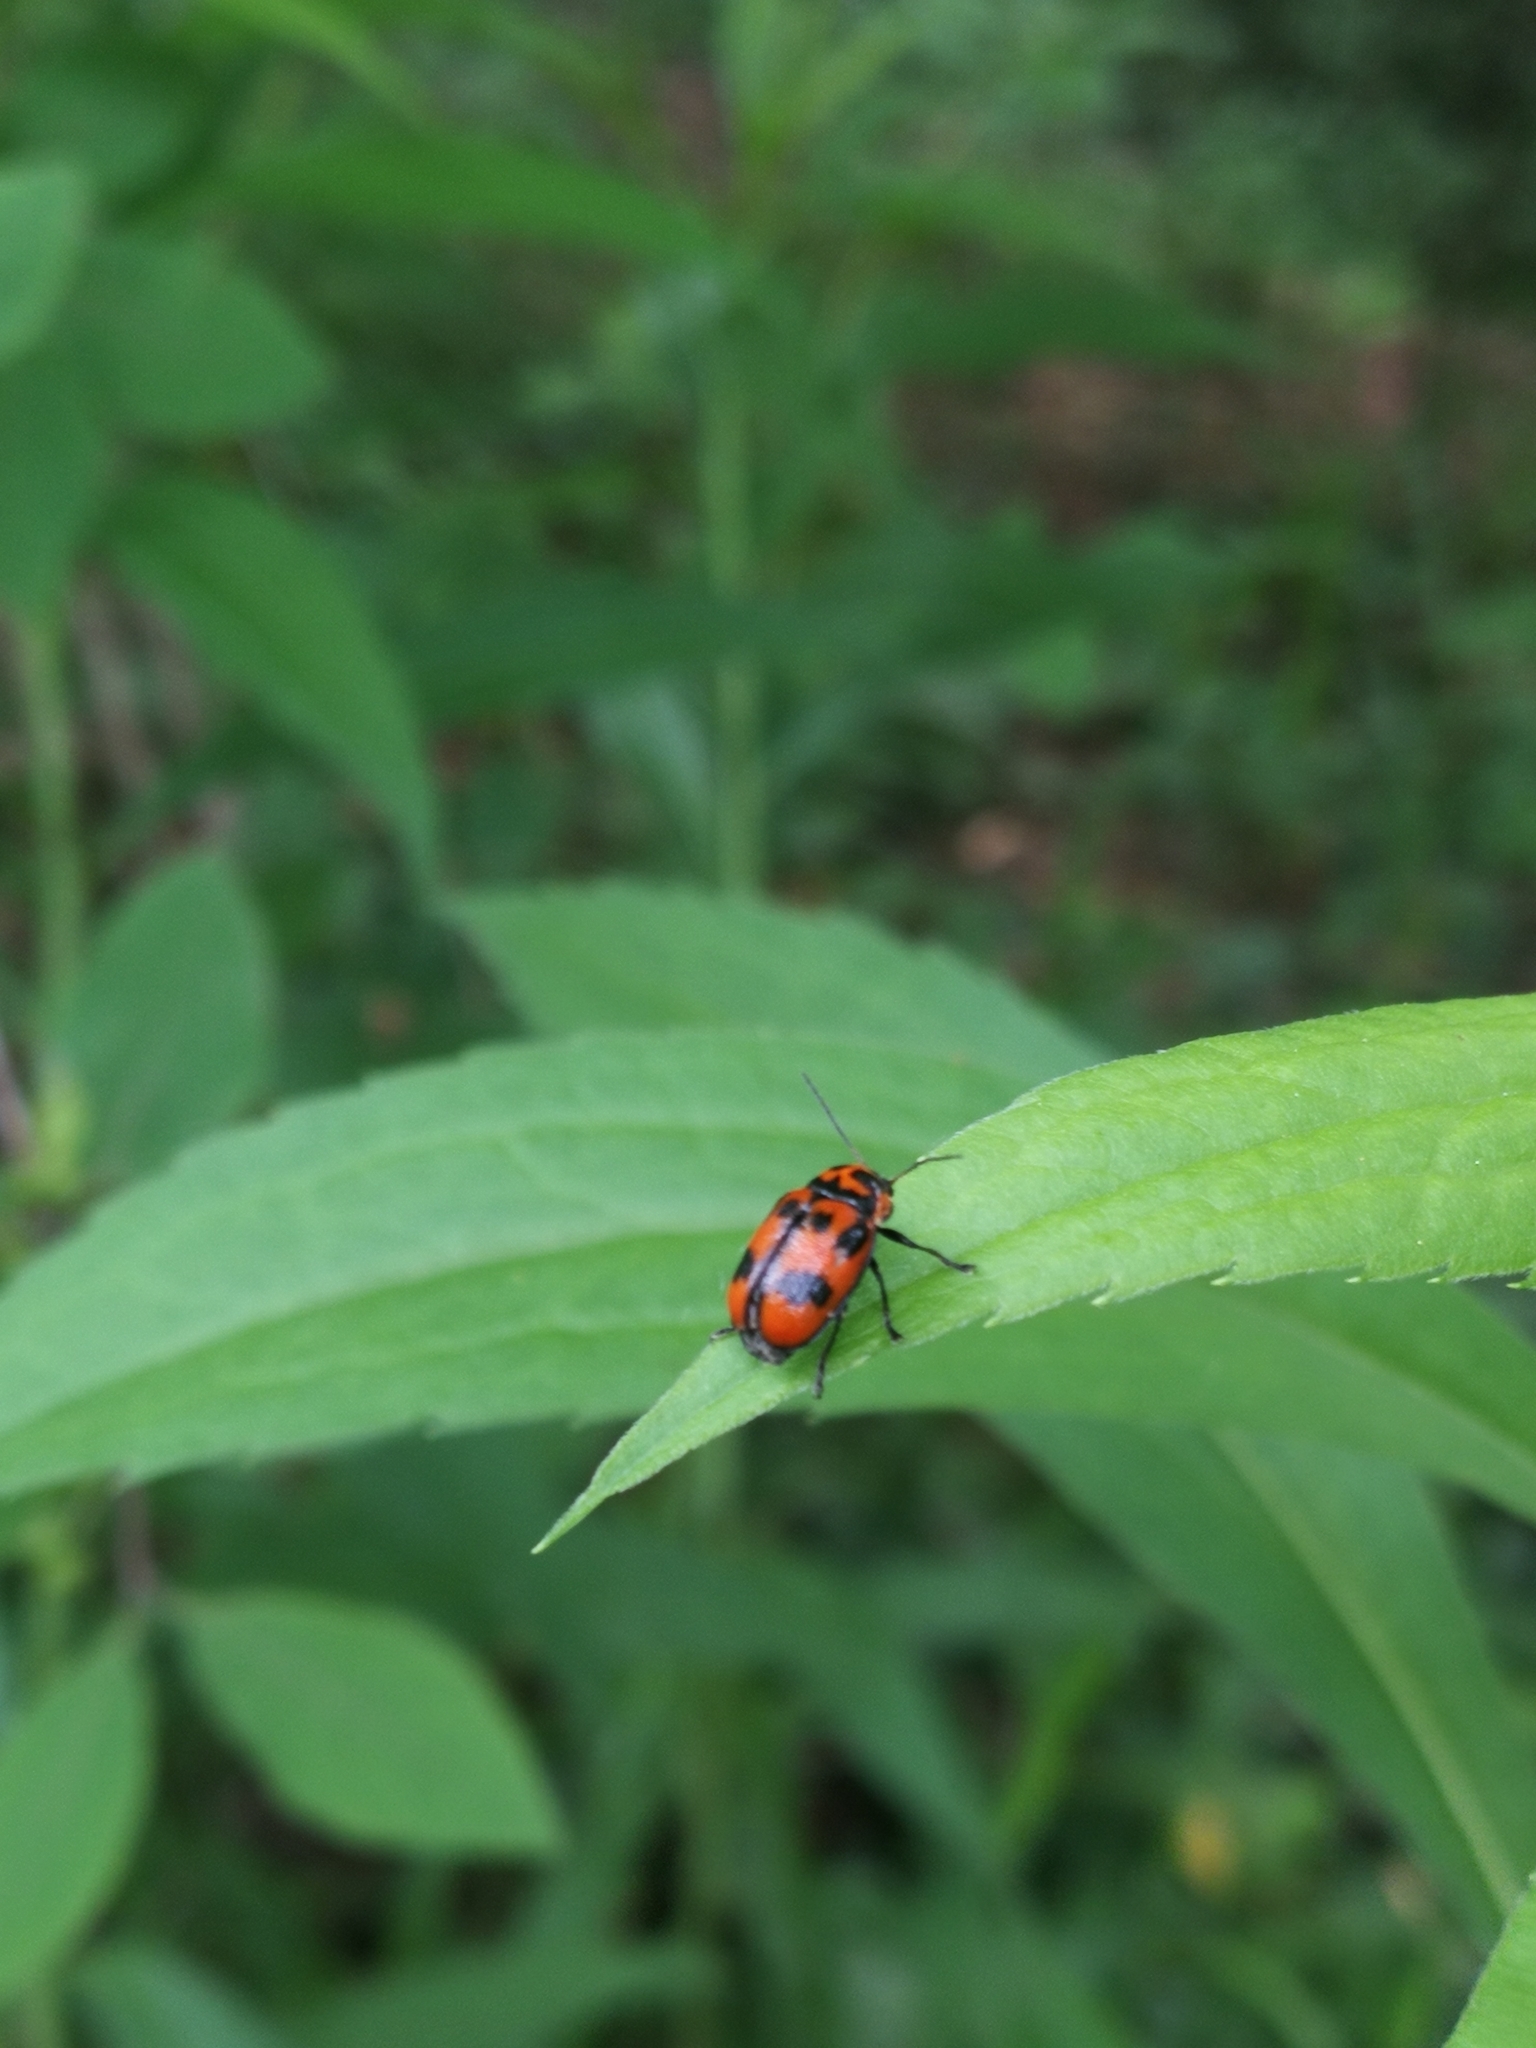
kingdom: Animalia
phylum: Arthropoda
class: Insecta
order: Coleoptera
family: Chrysomelidae
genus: Cryptocephalus
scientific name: Cryptocephalus sexpunctatus
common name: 6 spotted pot beetle
